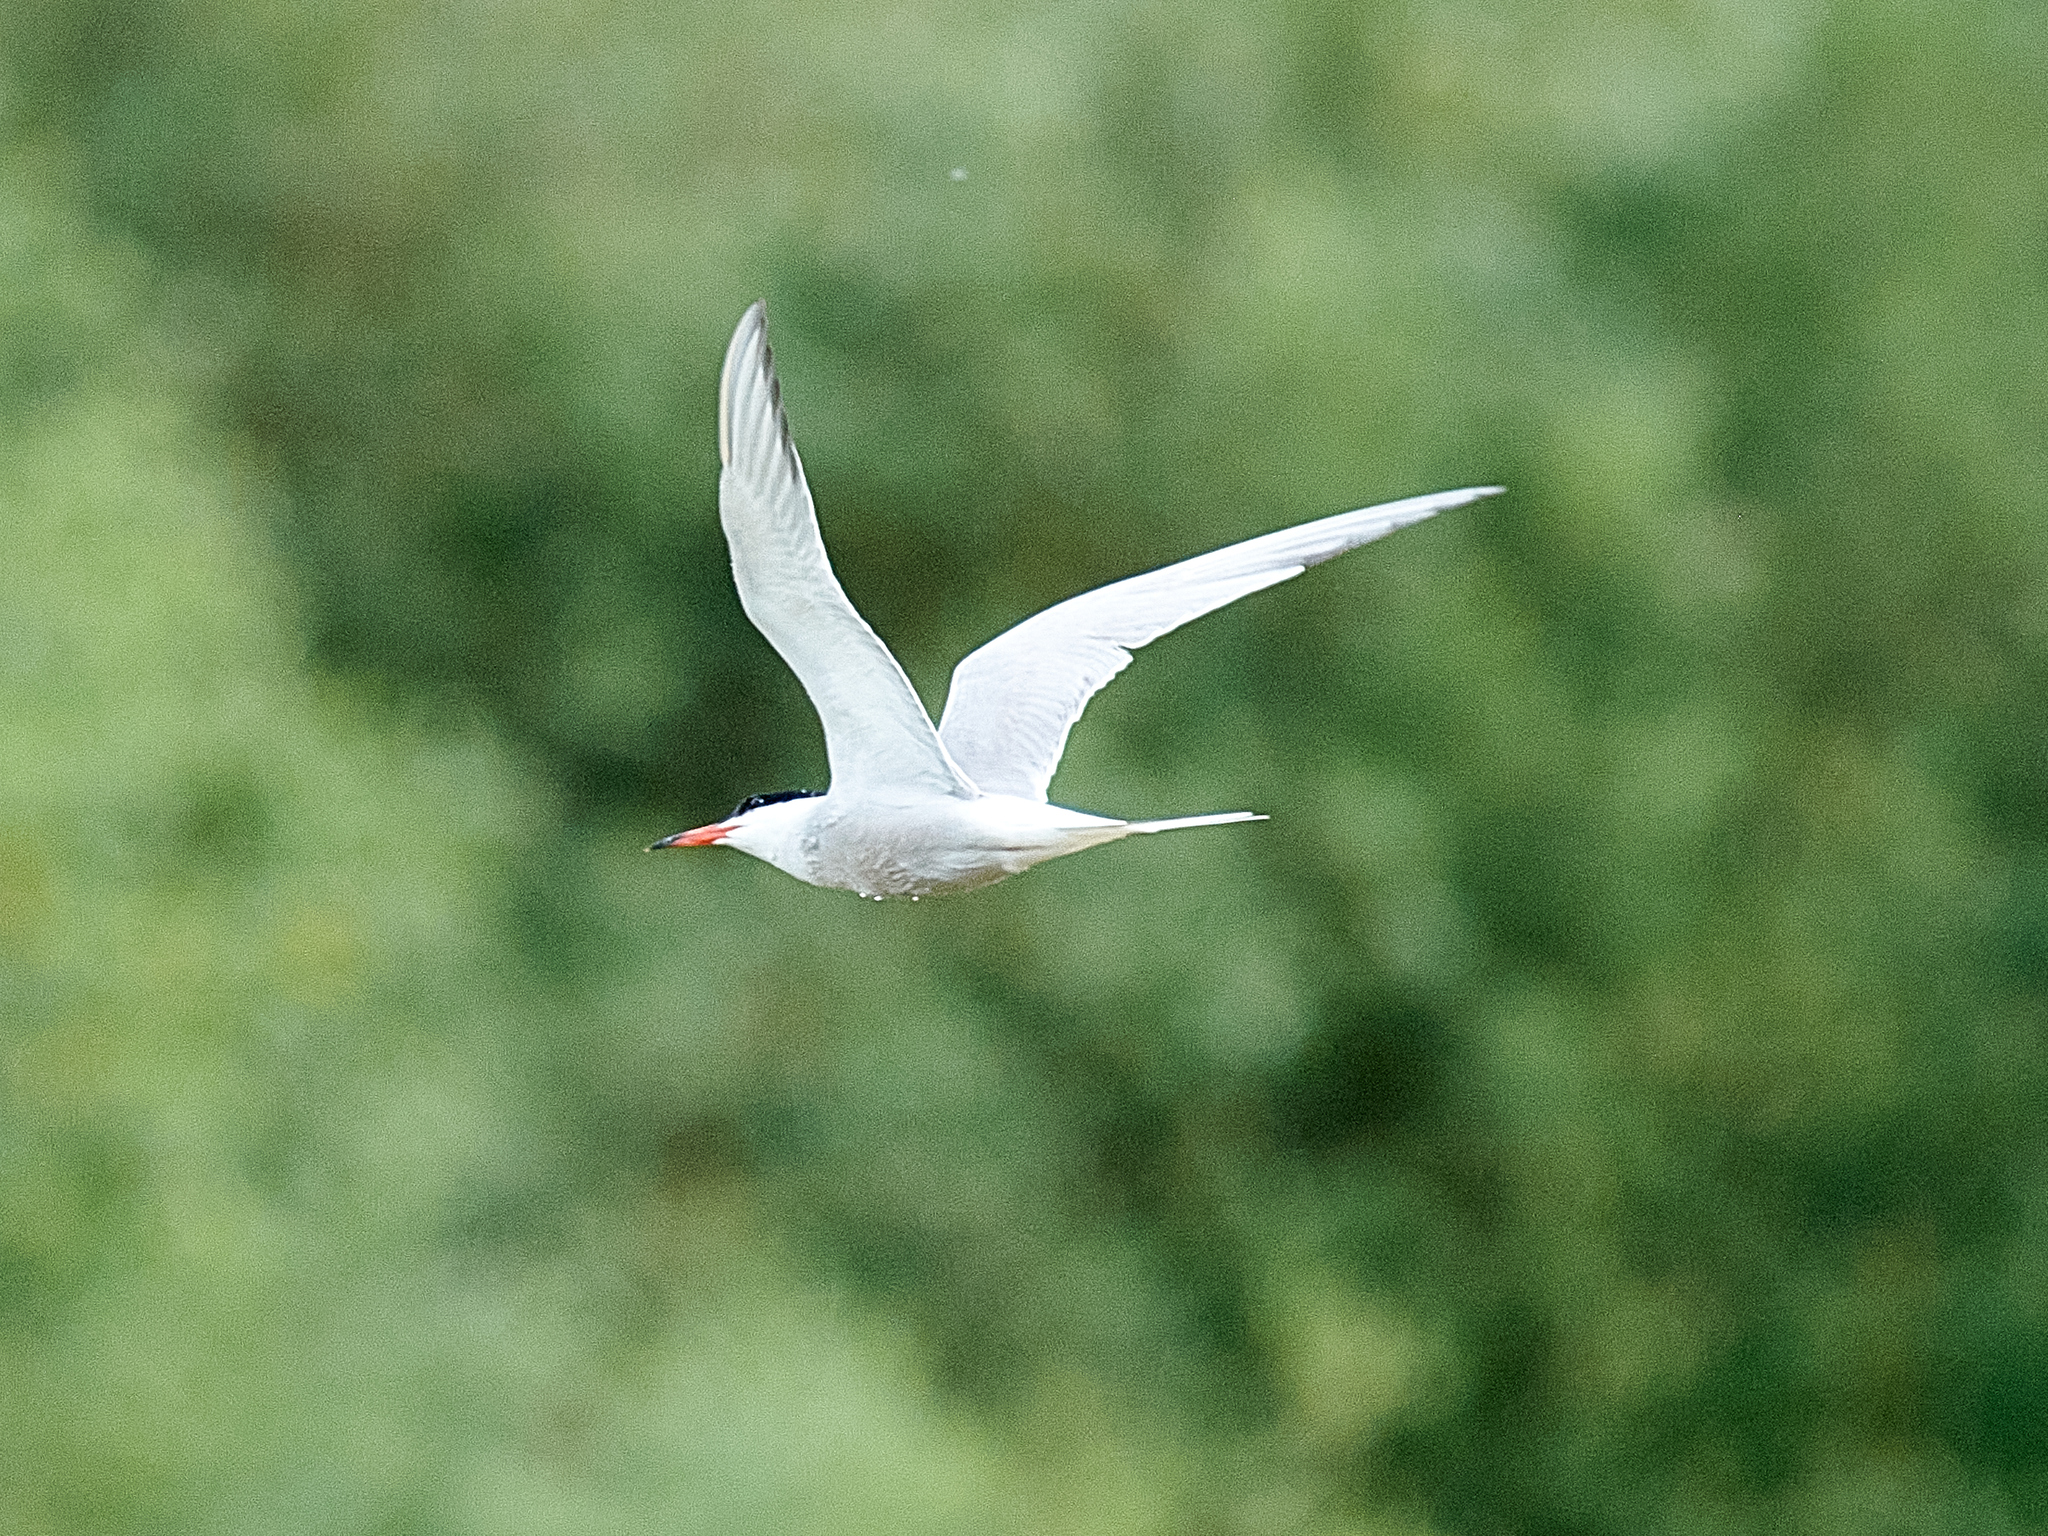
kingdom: Animalia
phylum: Chordata
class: Aves
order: Charadriiformes
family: Laridae
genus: Sterna
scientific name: Sterna hirundo
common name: Common tern
